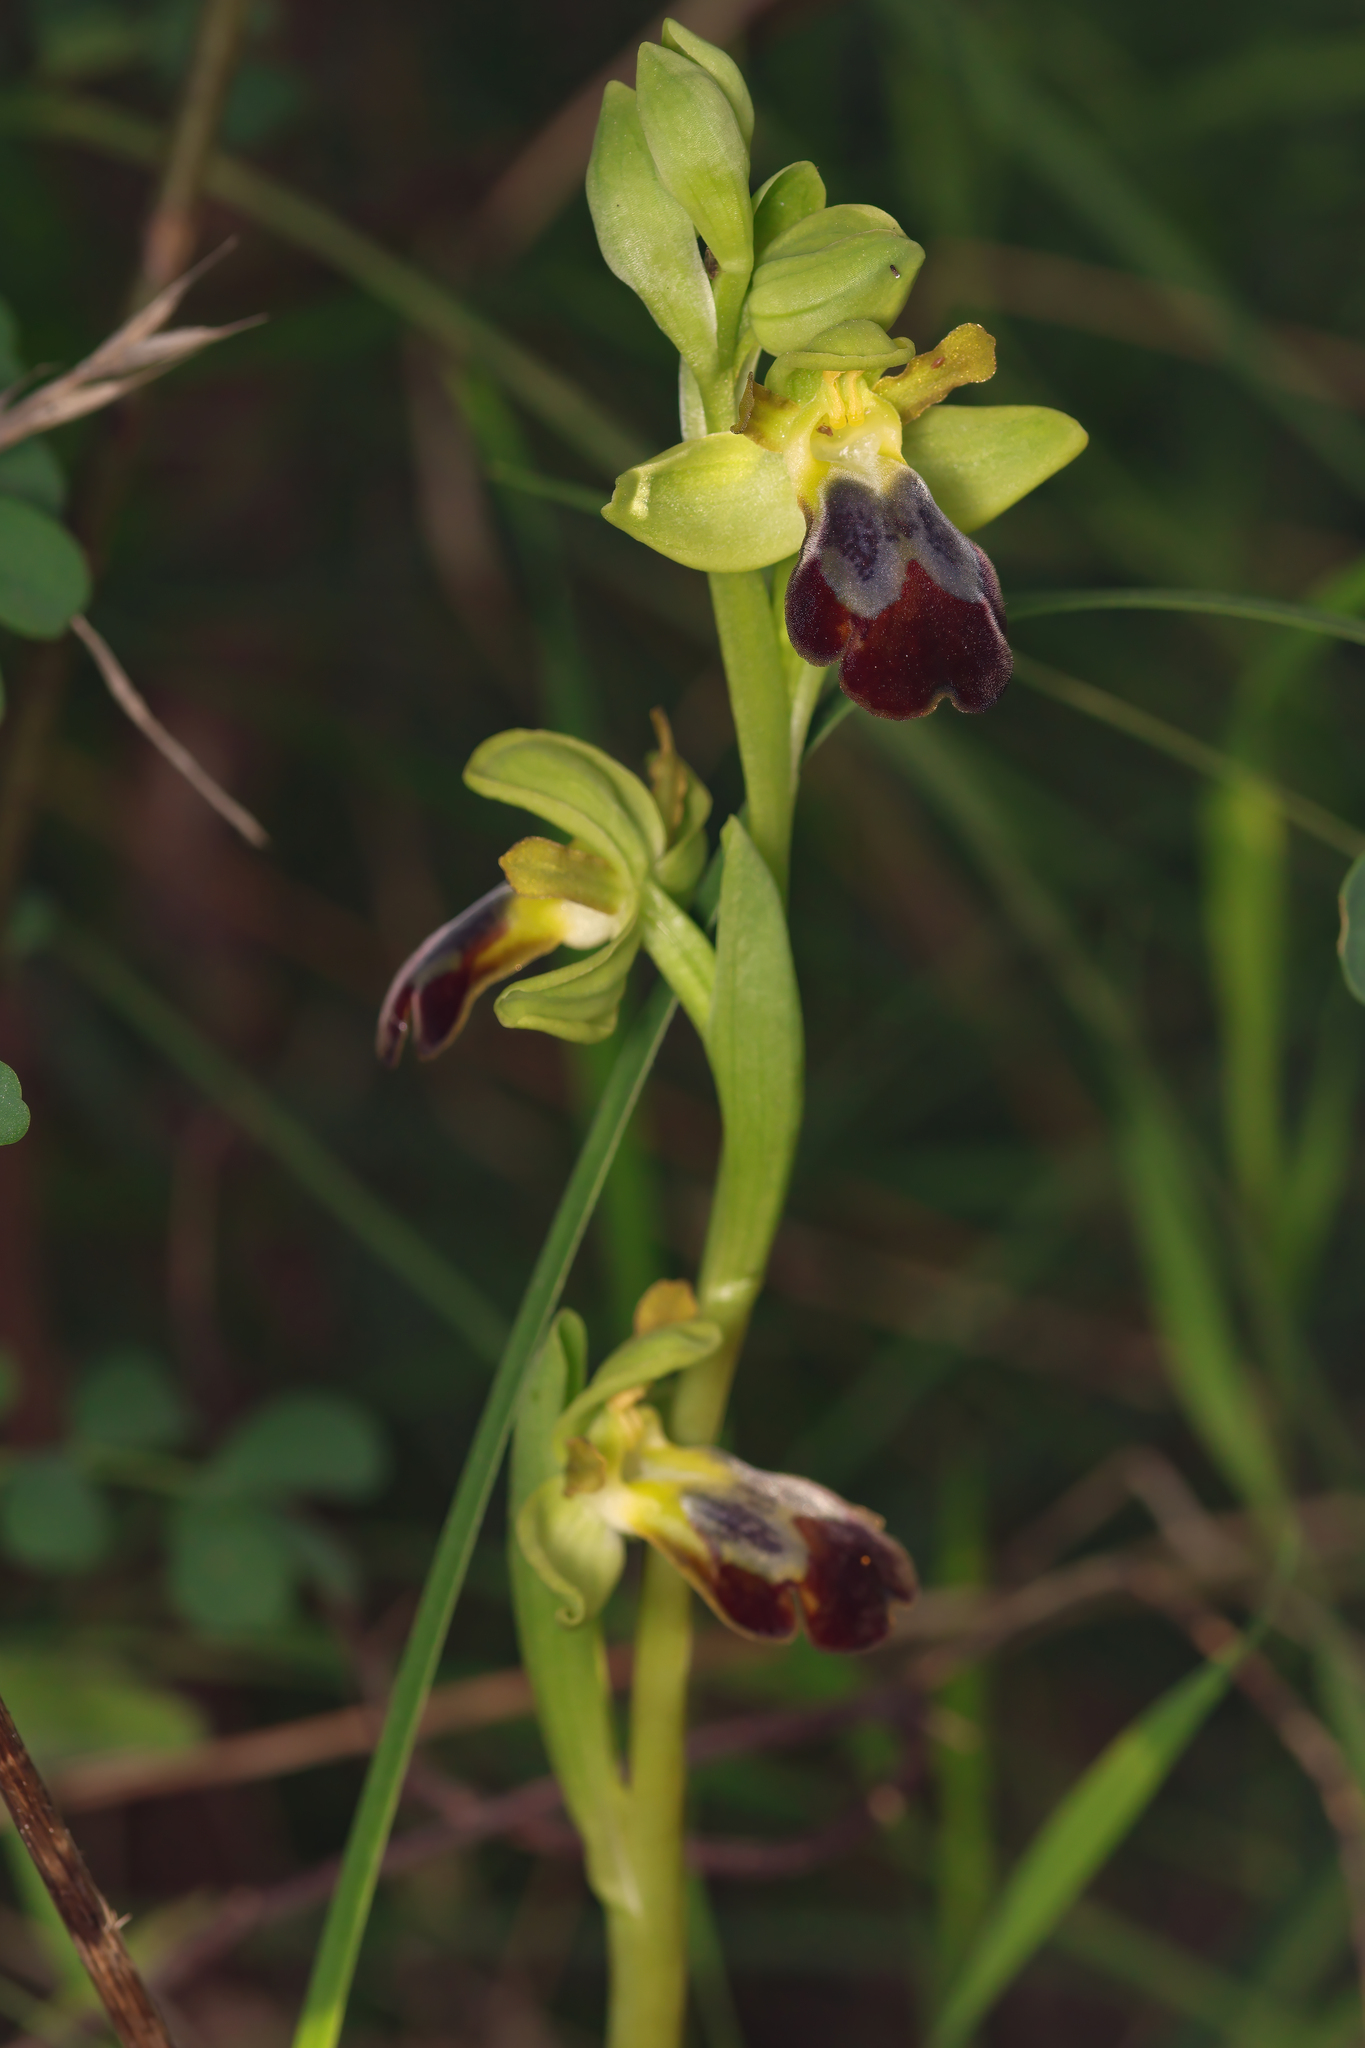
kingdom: Plantae
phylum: Tracheophyta
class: Liliopsida
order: Asparagales
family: Orchidaceae
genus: Ophrys
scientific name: Ophrys fusca
